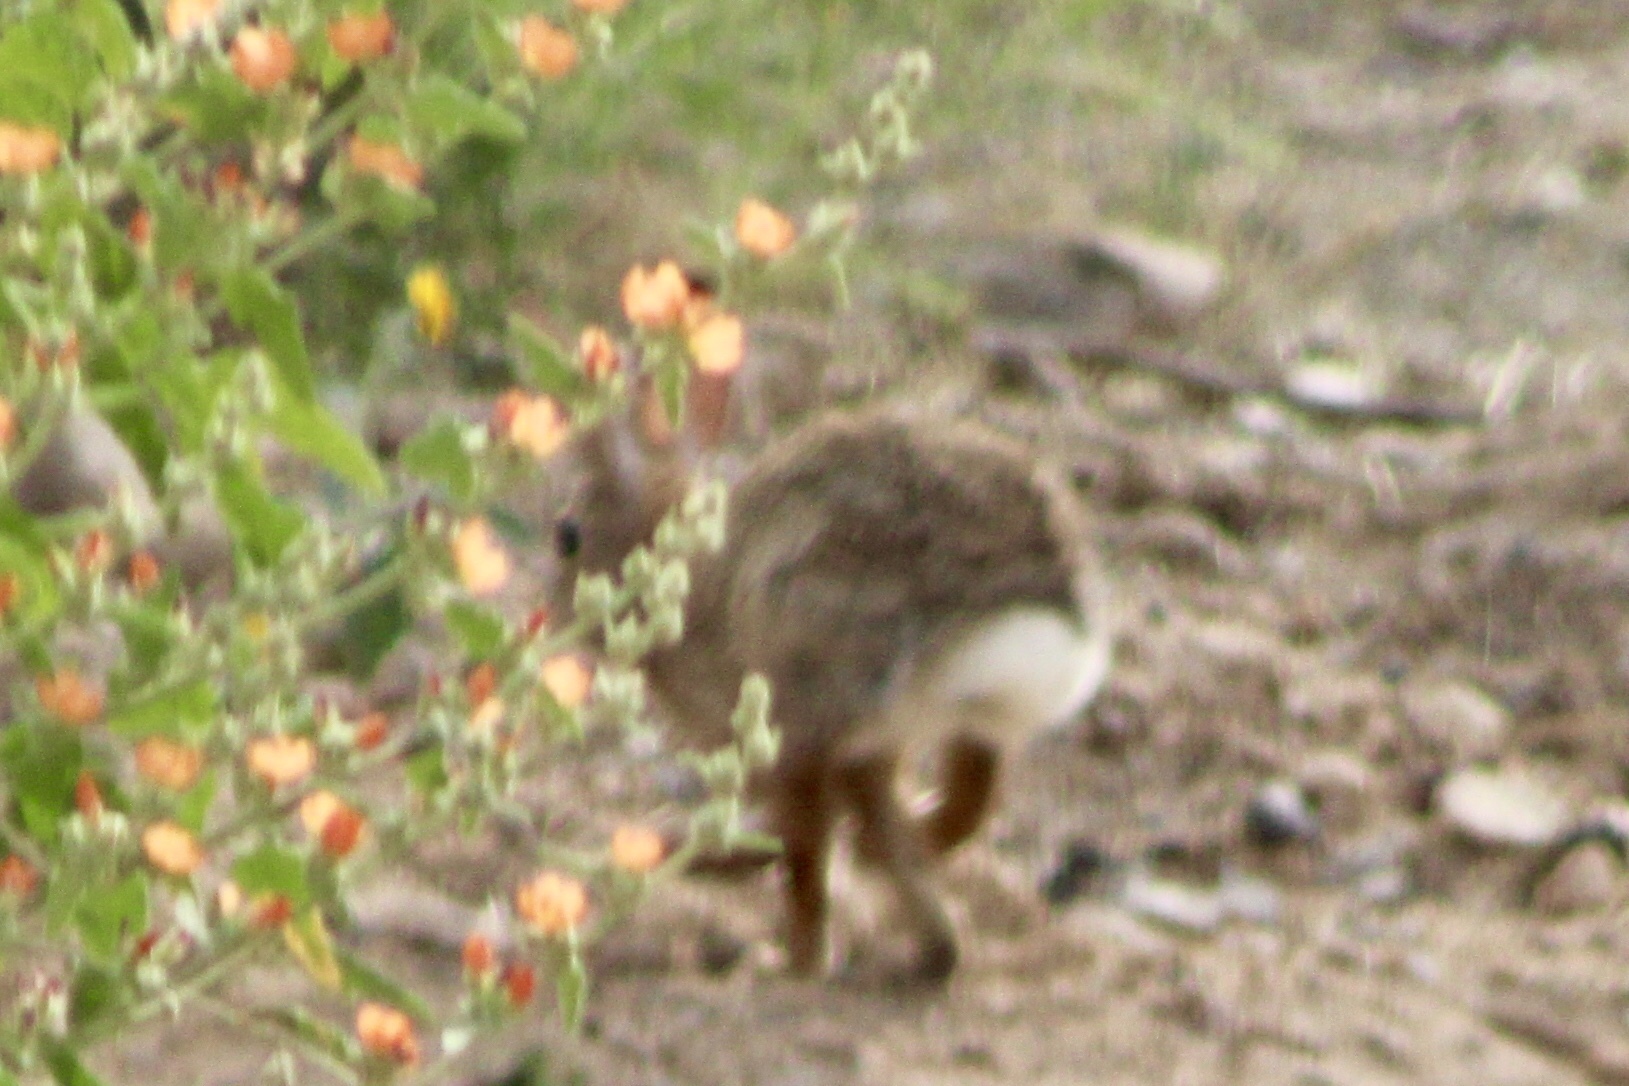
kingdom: Animalia
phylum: Chordata
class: Mammalia
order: Lagomorpha
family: Leporidae
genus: Sylvilagus
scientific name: Sylvilagus audubonii
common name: Desert cottontail
